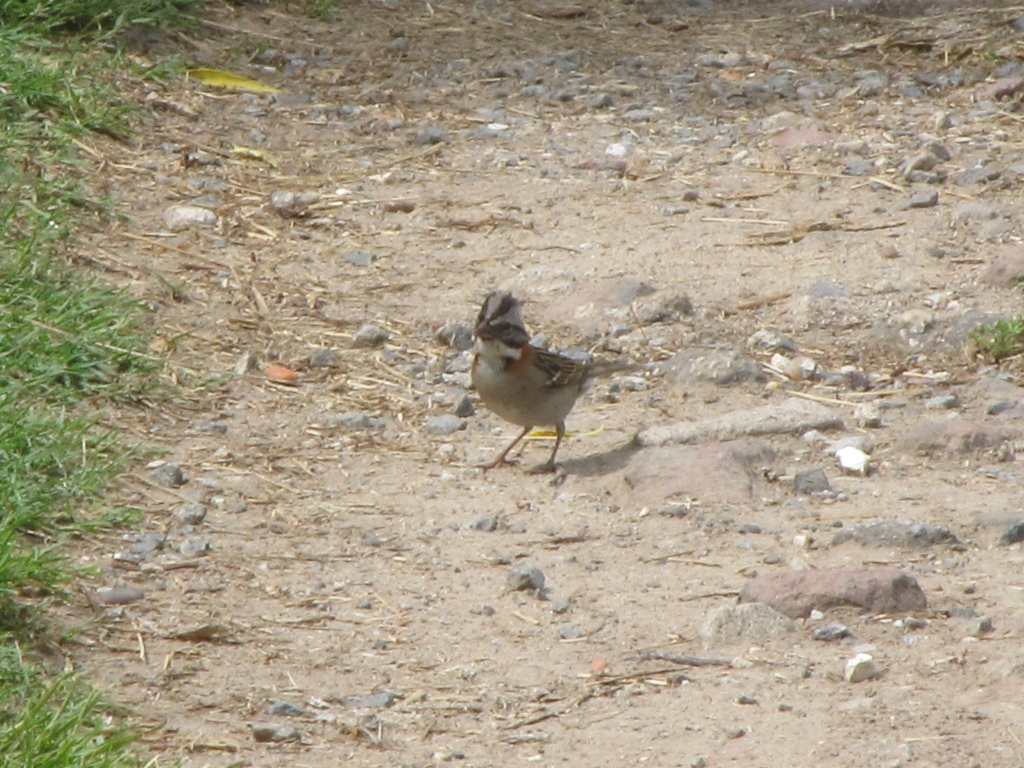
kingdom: Animalia
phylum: Chordata
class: Aves
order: Passeriformes
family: Passerellidae
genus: Zonotrichia
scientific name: Zonotrichia capensis
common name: Rufous-collared sparrow
